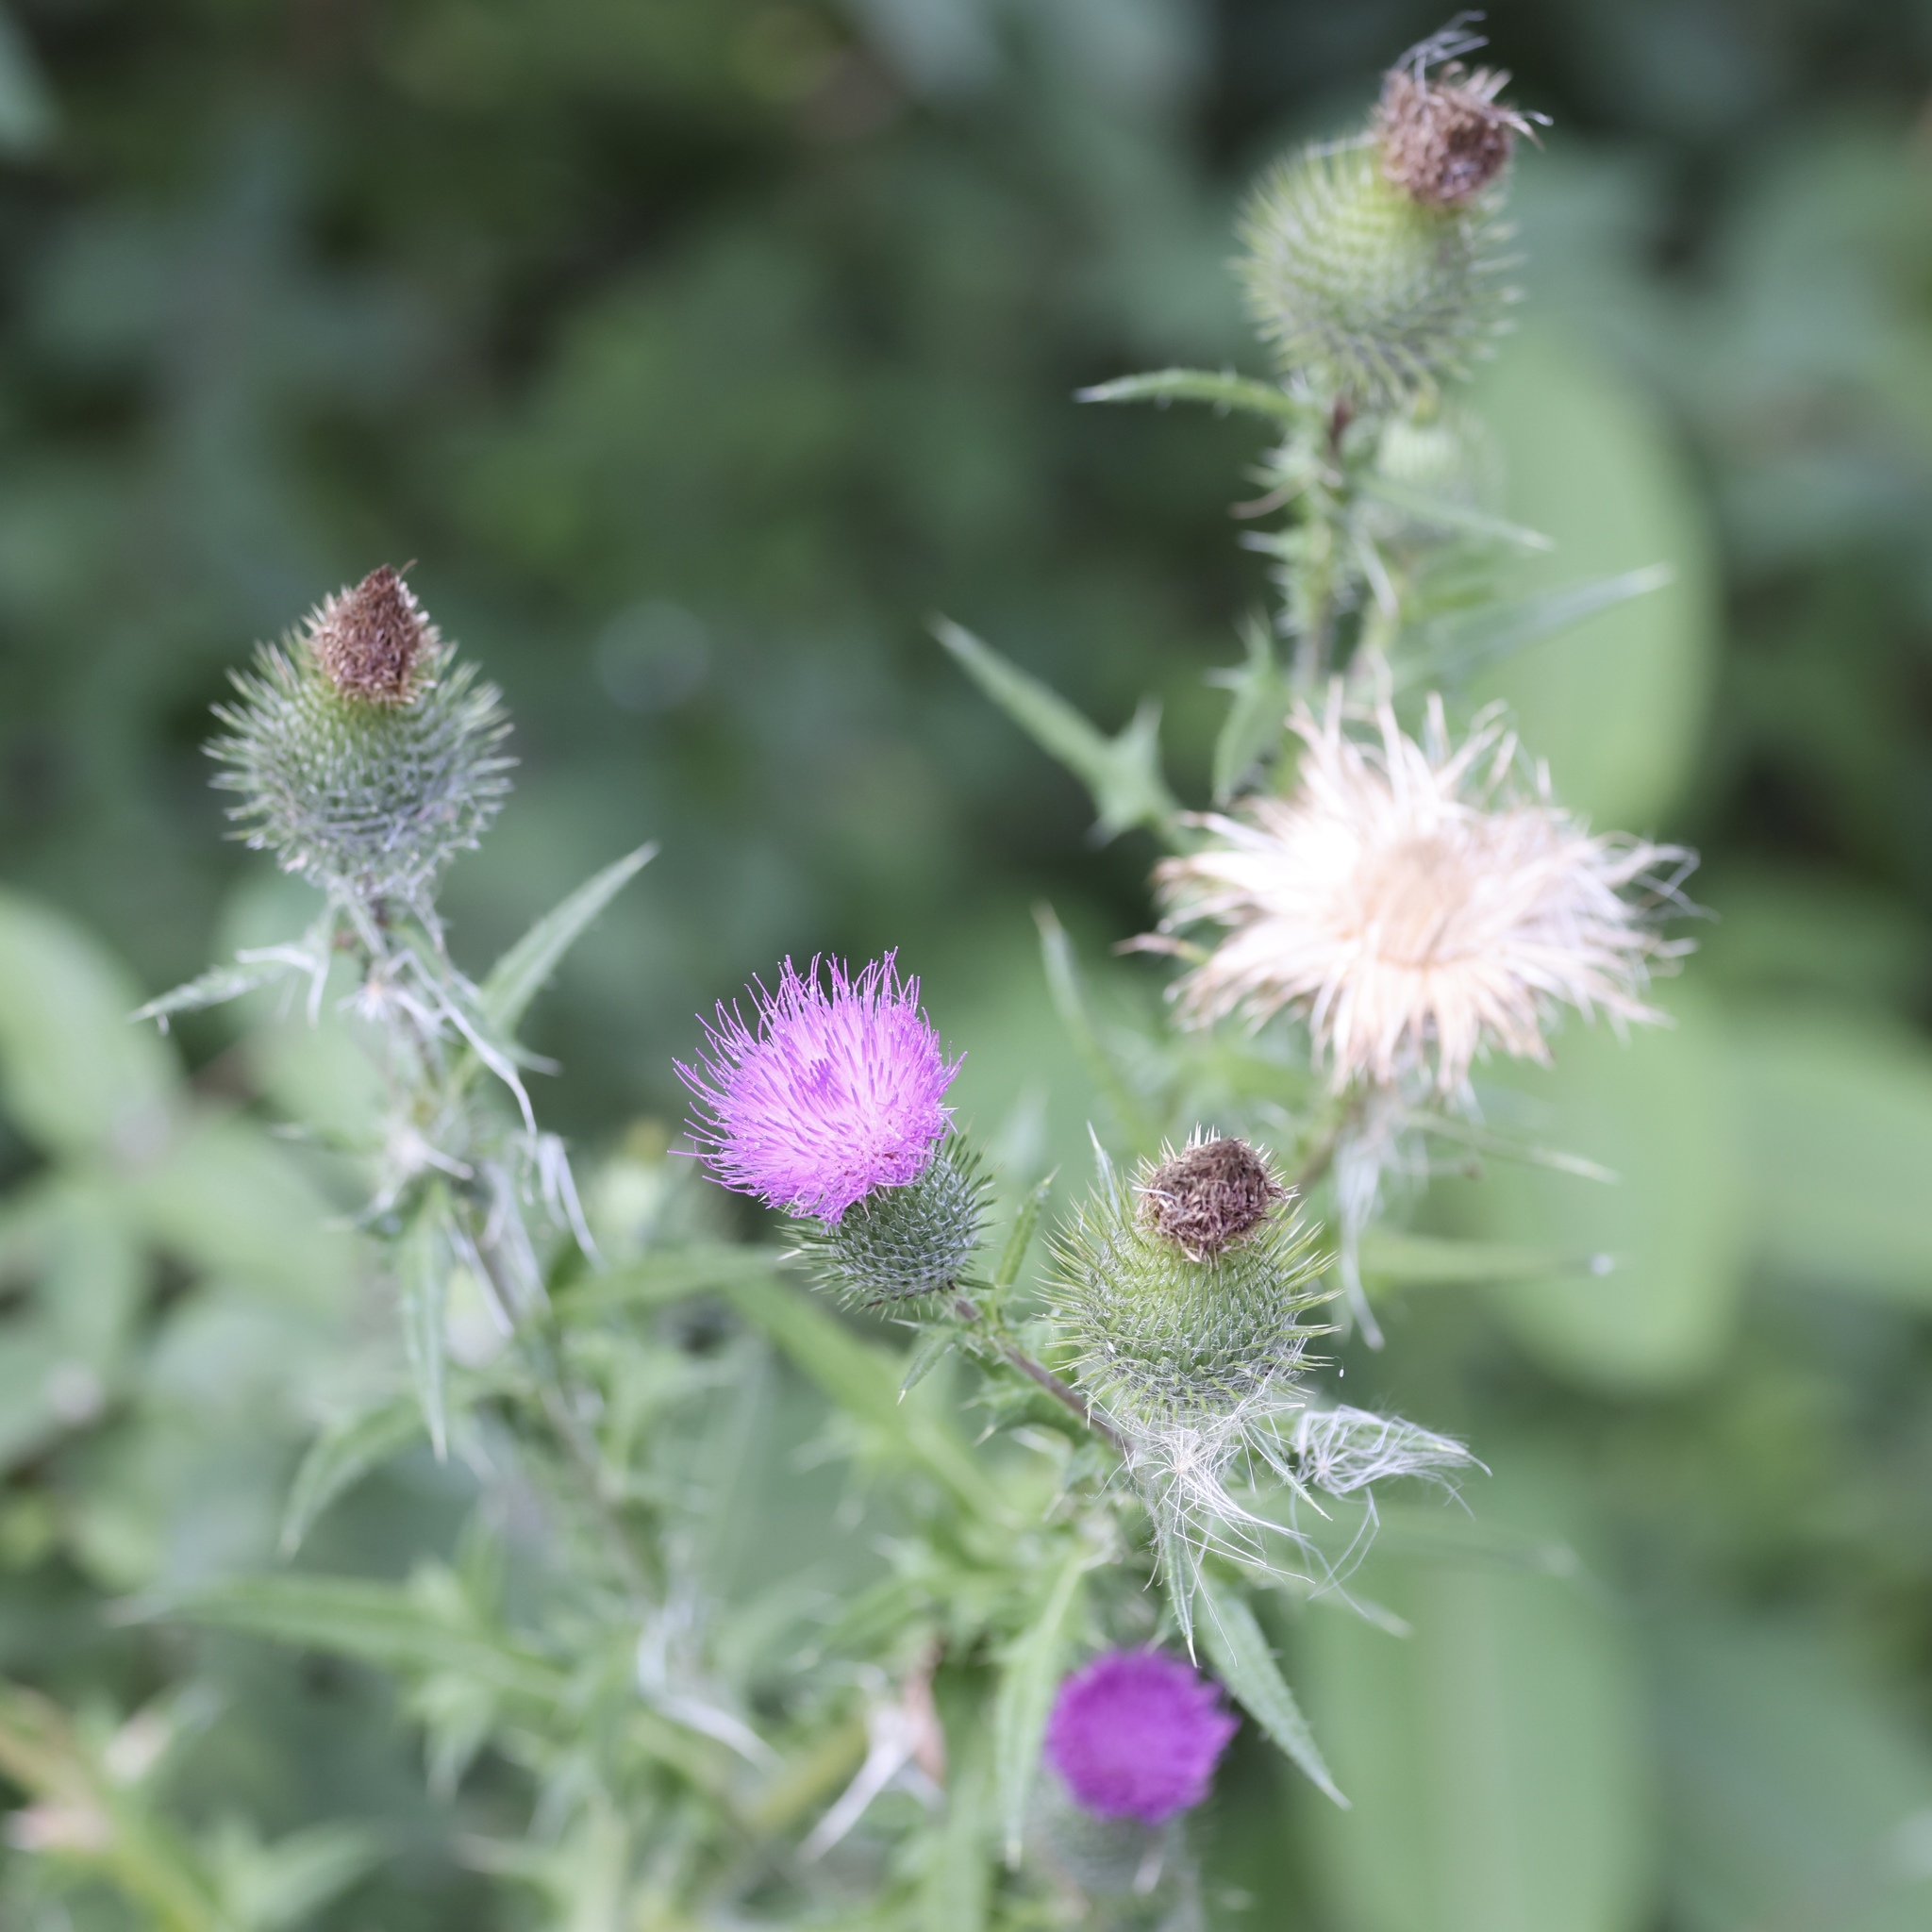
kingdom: Plantae
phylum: Tracheophyta
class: Magnoliopsida
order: Asterales
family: Asteraceae
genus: Cirsium
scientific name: Cirsium vulgare
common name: Bull thistle
